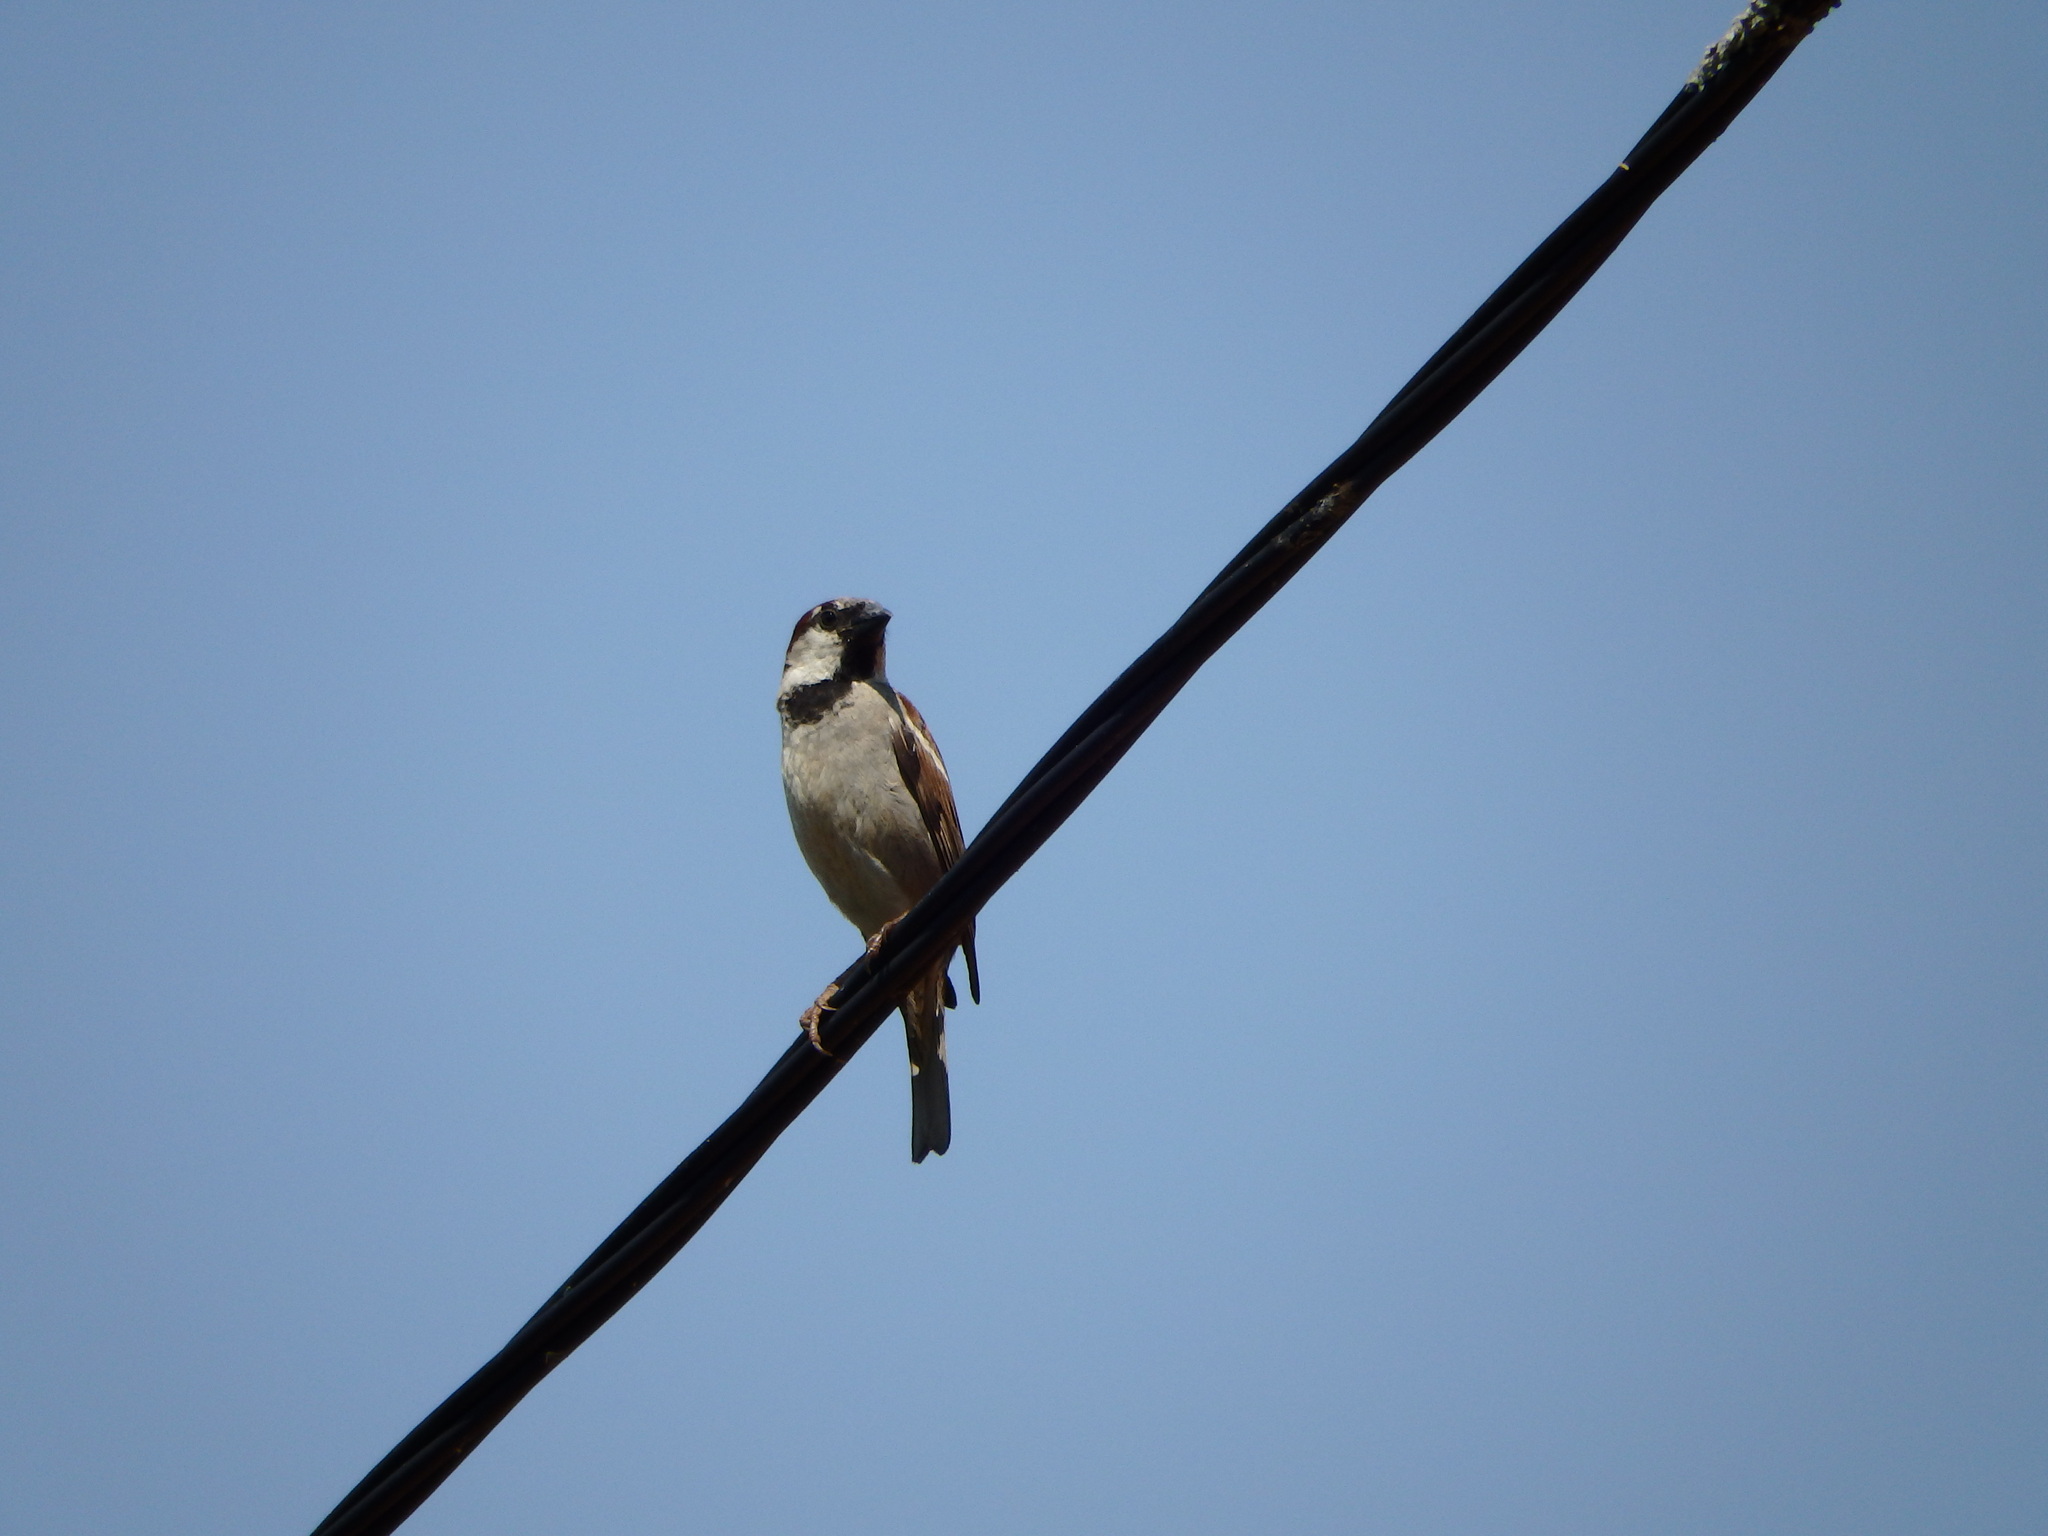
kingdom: Animalia
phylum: Chordata
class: Aves
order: Passeriformes
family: Passeridae
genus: Passer
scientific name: Passer domesticus
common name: House sparrow
